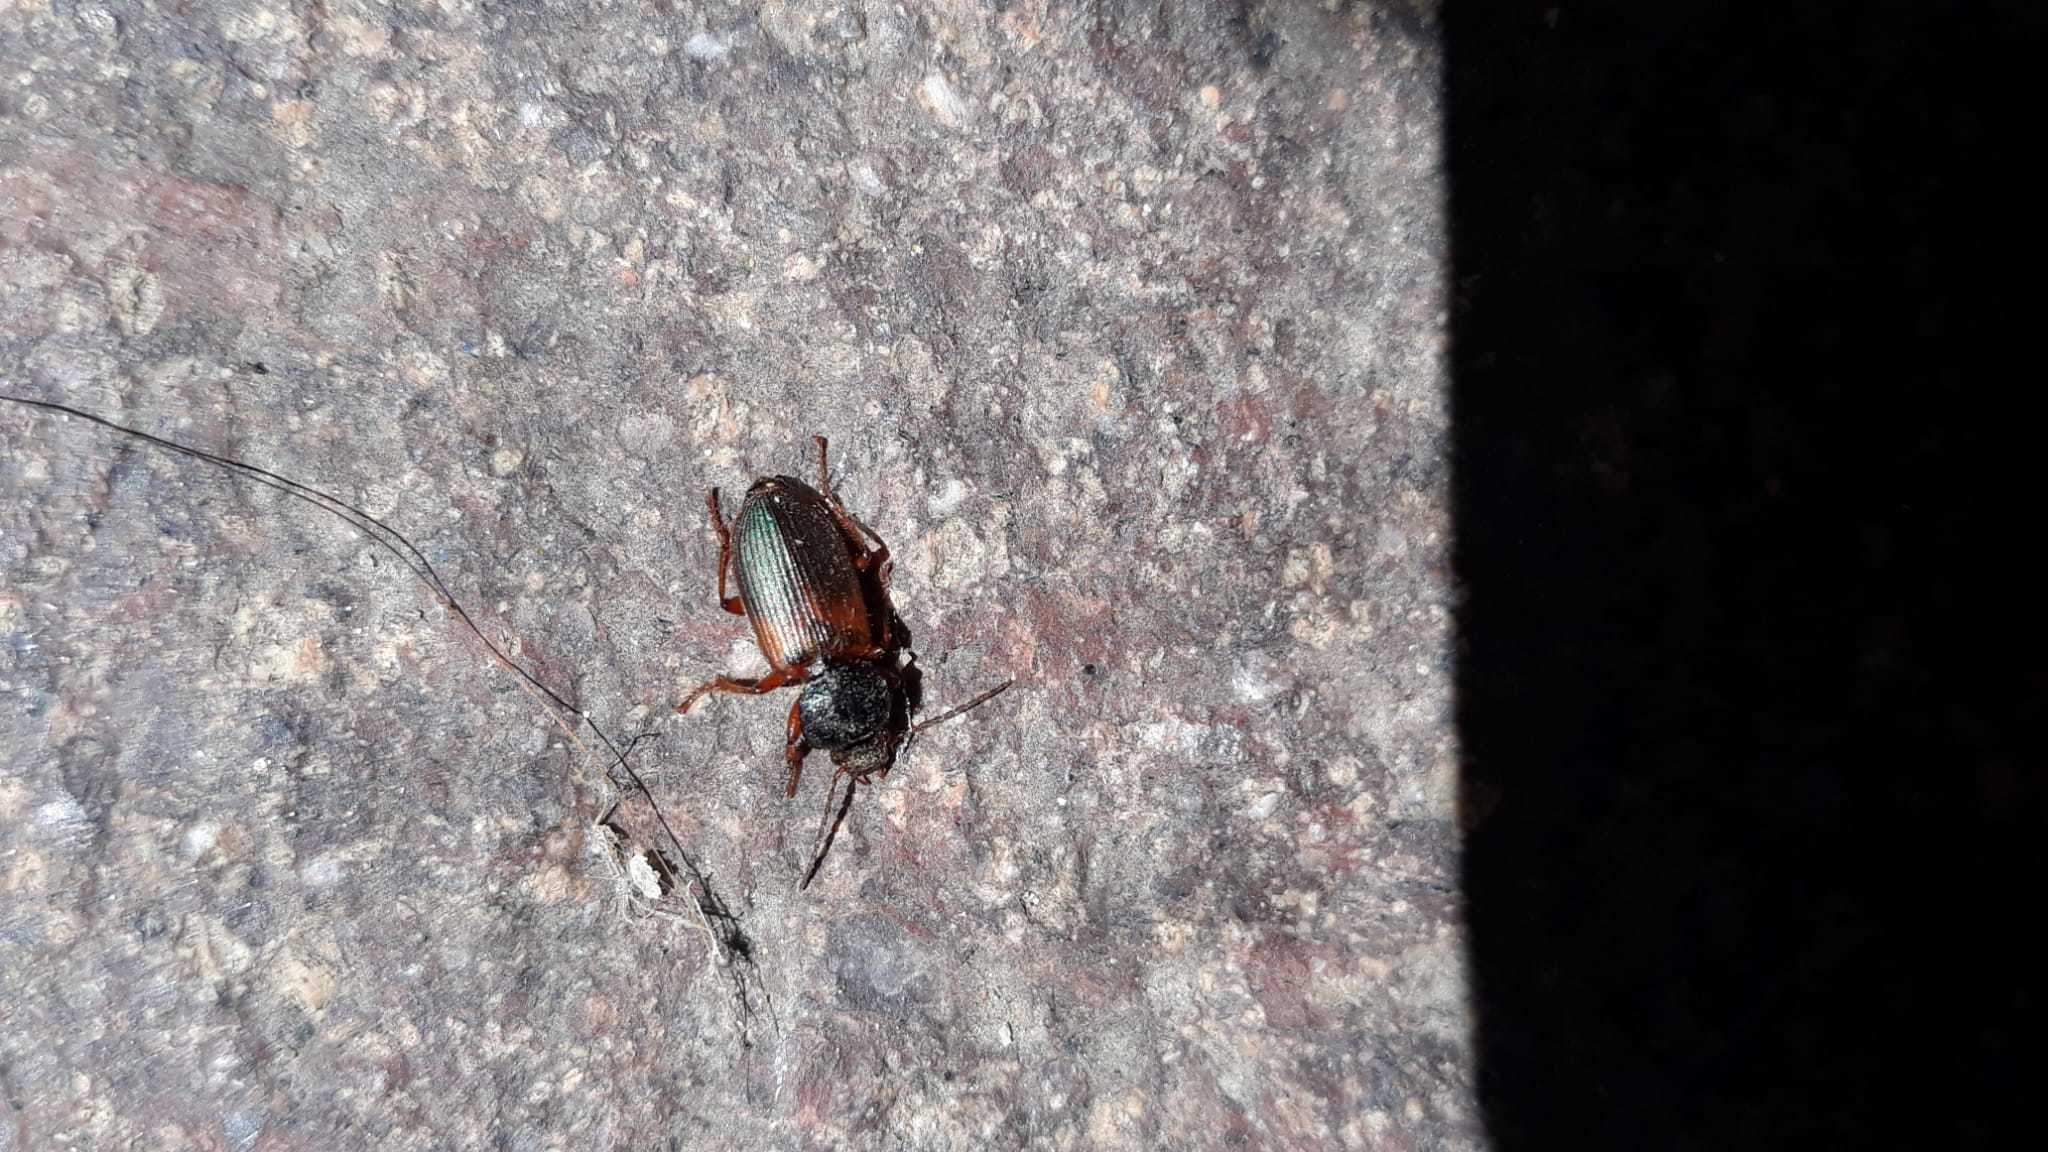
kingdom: Animalia
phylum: Arthropoda
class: Insecta
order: Coleoptera
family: Carabidae
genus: Gynandromorphus
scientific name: Gynandromorphus etruscus
